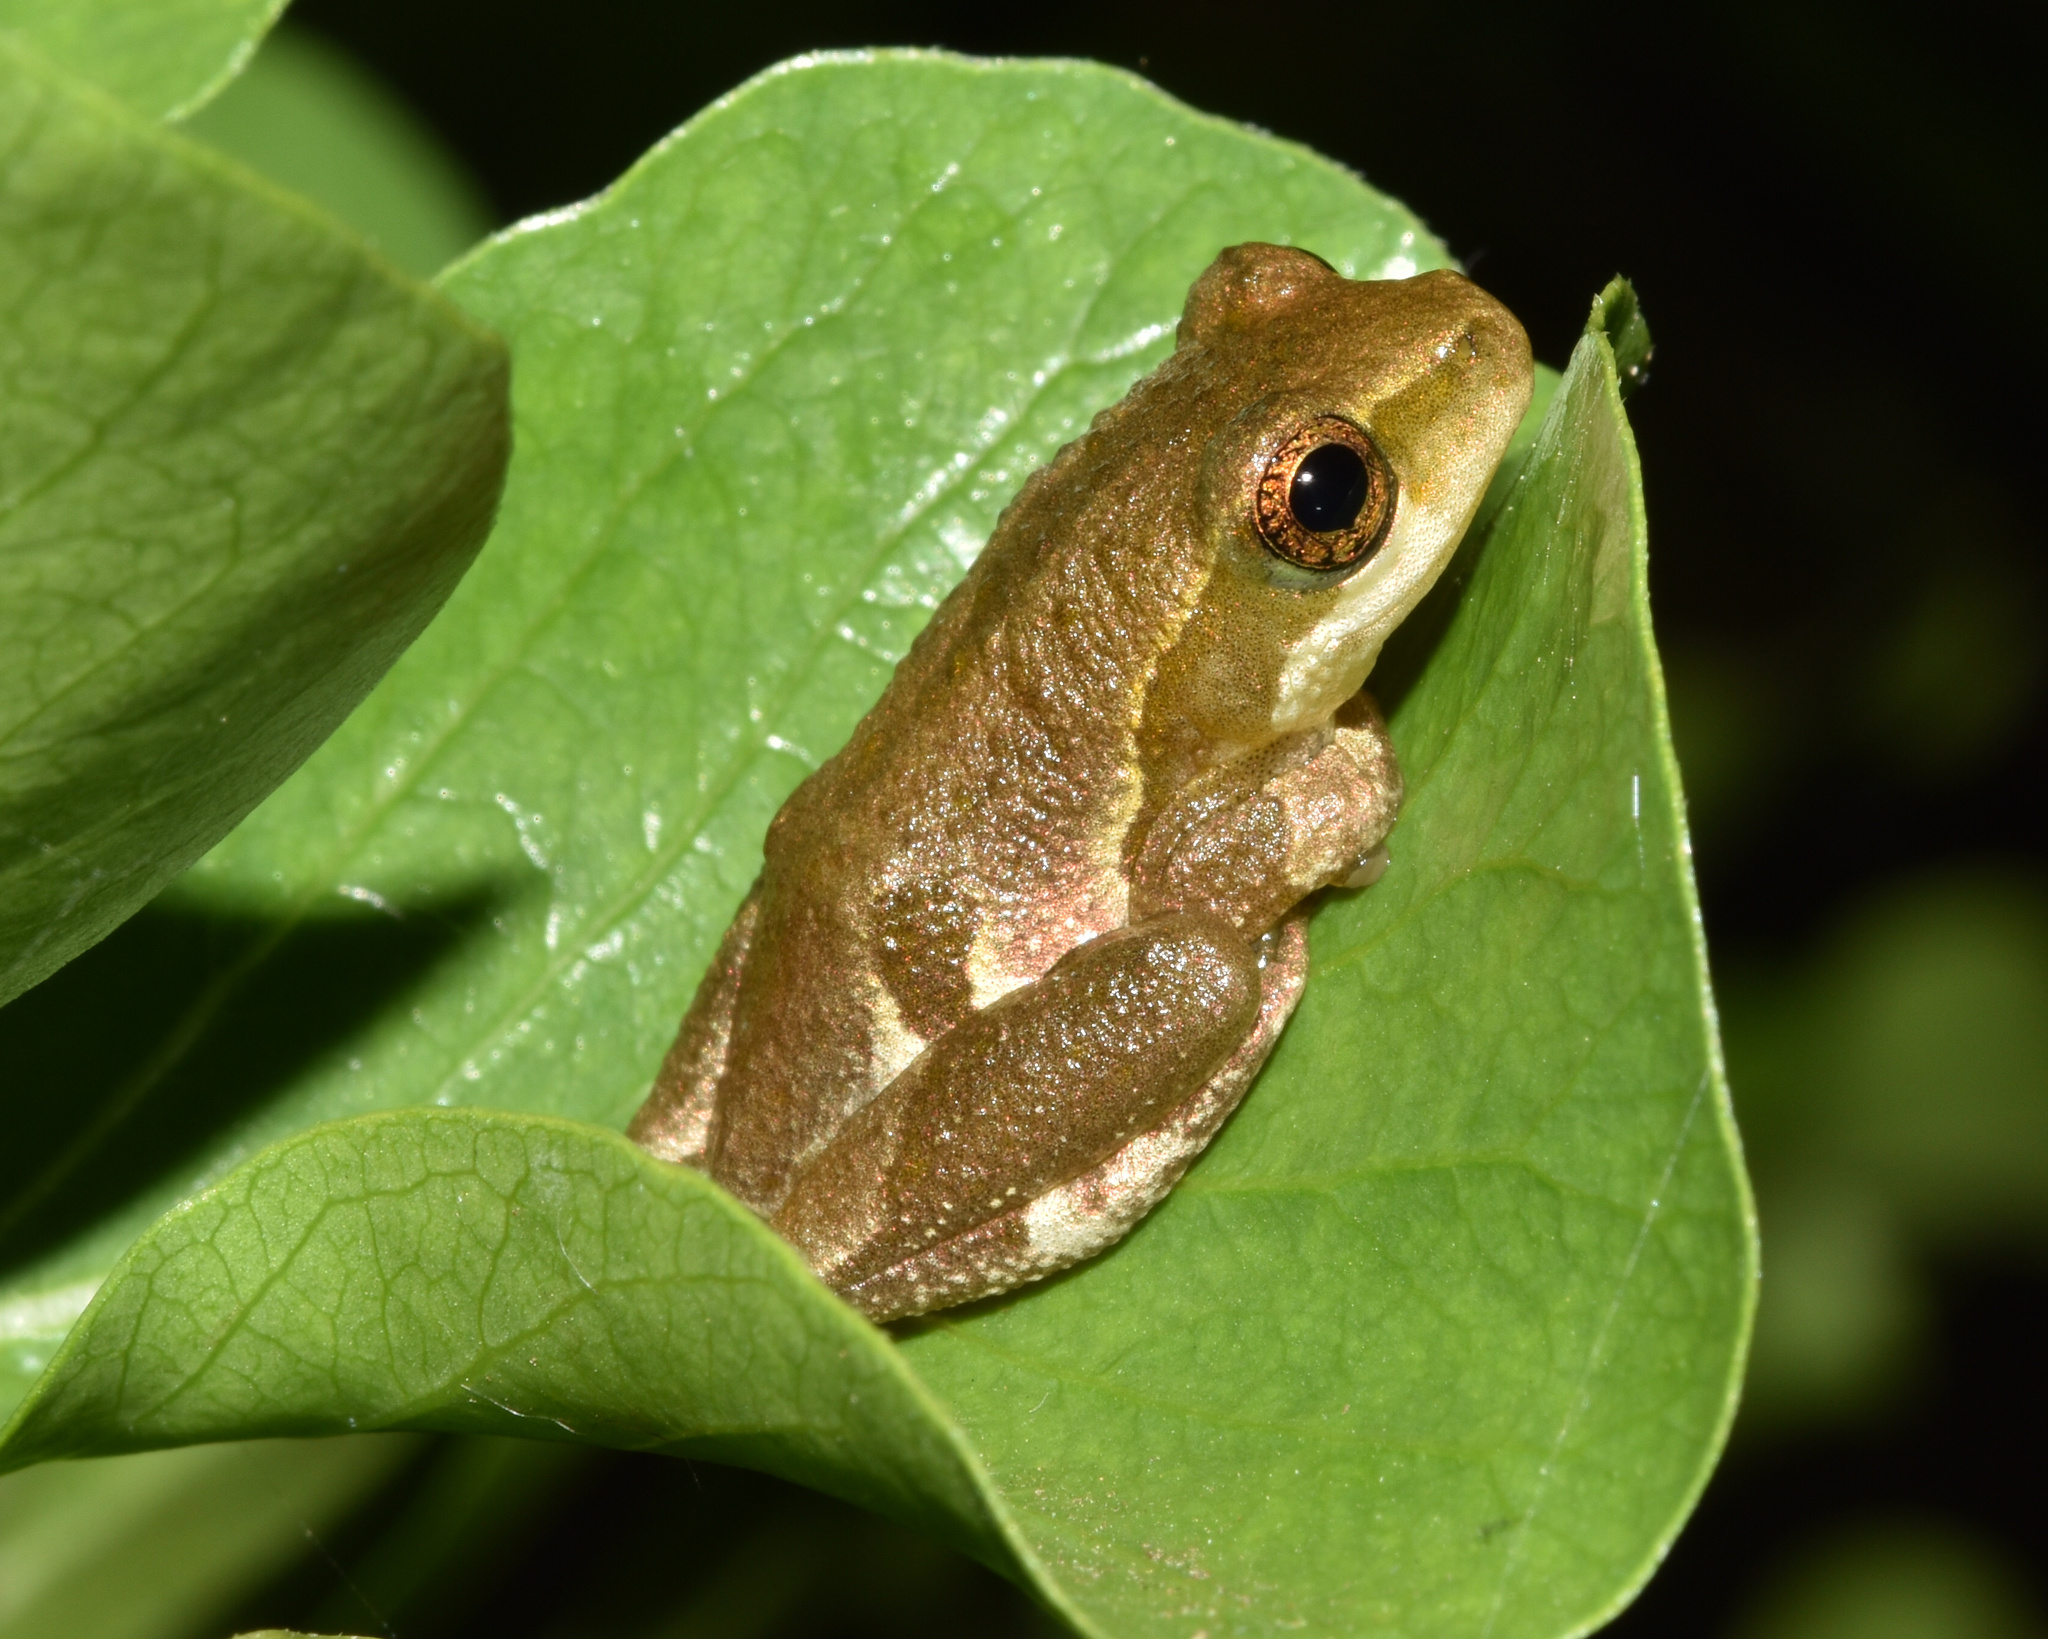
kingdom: Animalia
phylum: Chordata
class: Amphibia
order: Anura
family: Hyperoliidae
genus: Hyperolius
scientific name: Hyperolius marmoratus
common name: Painted reed frog
